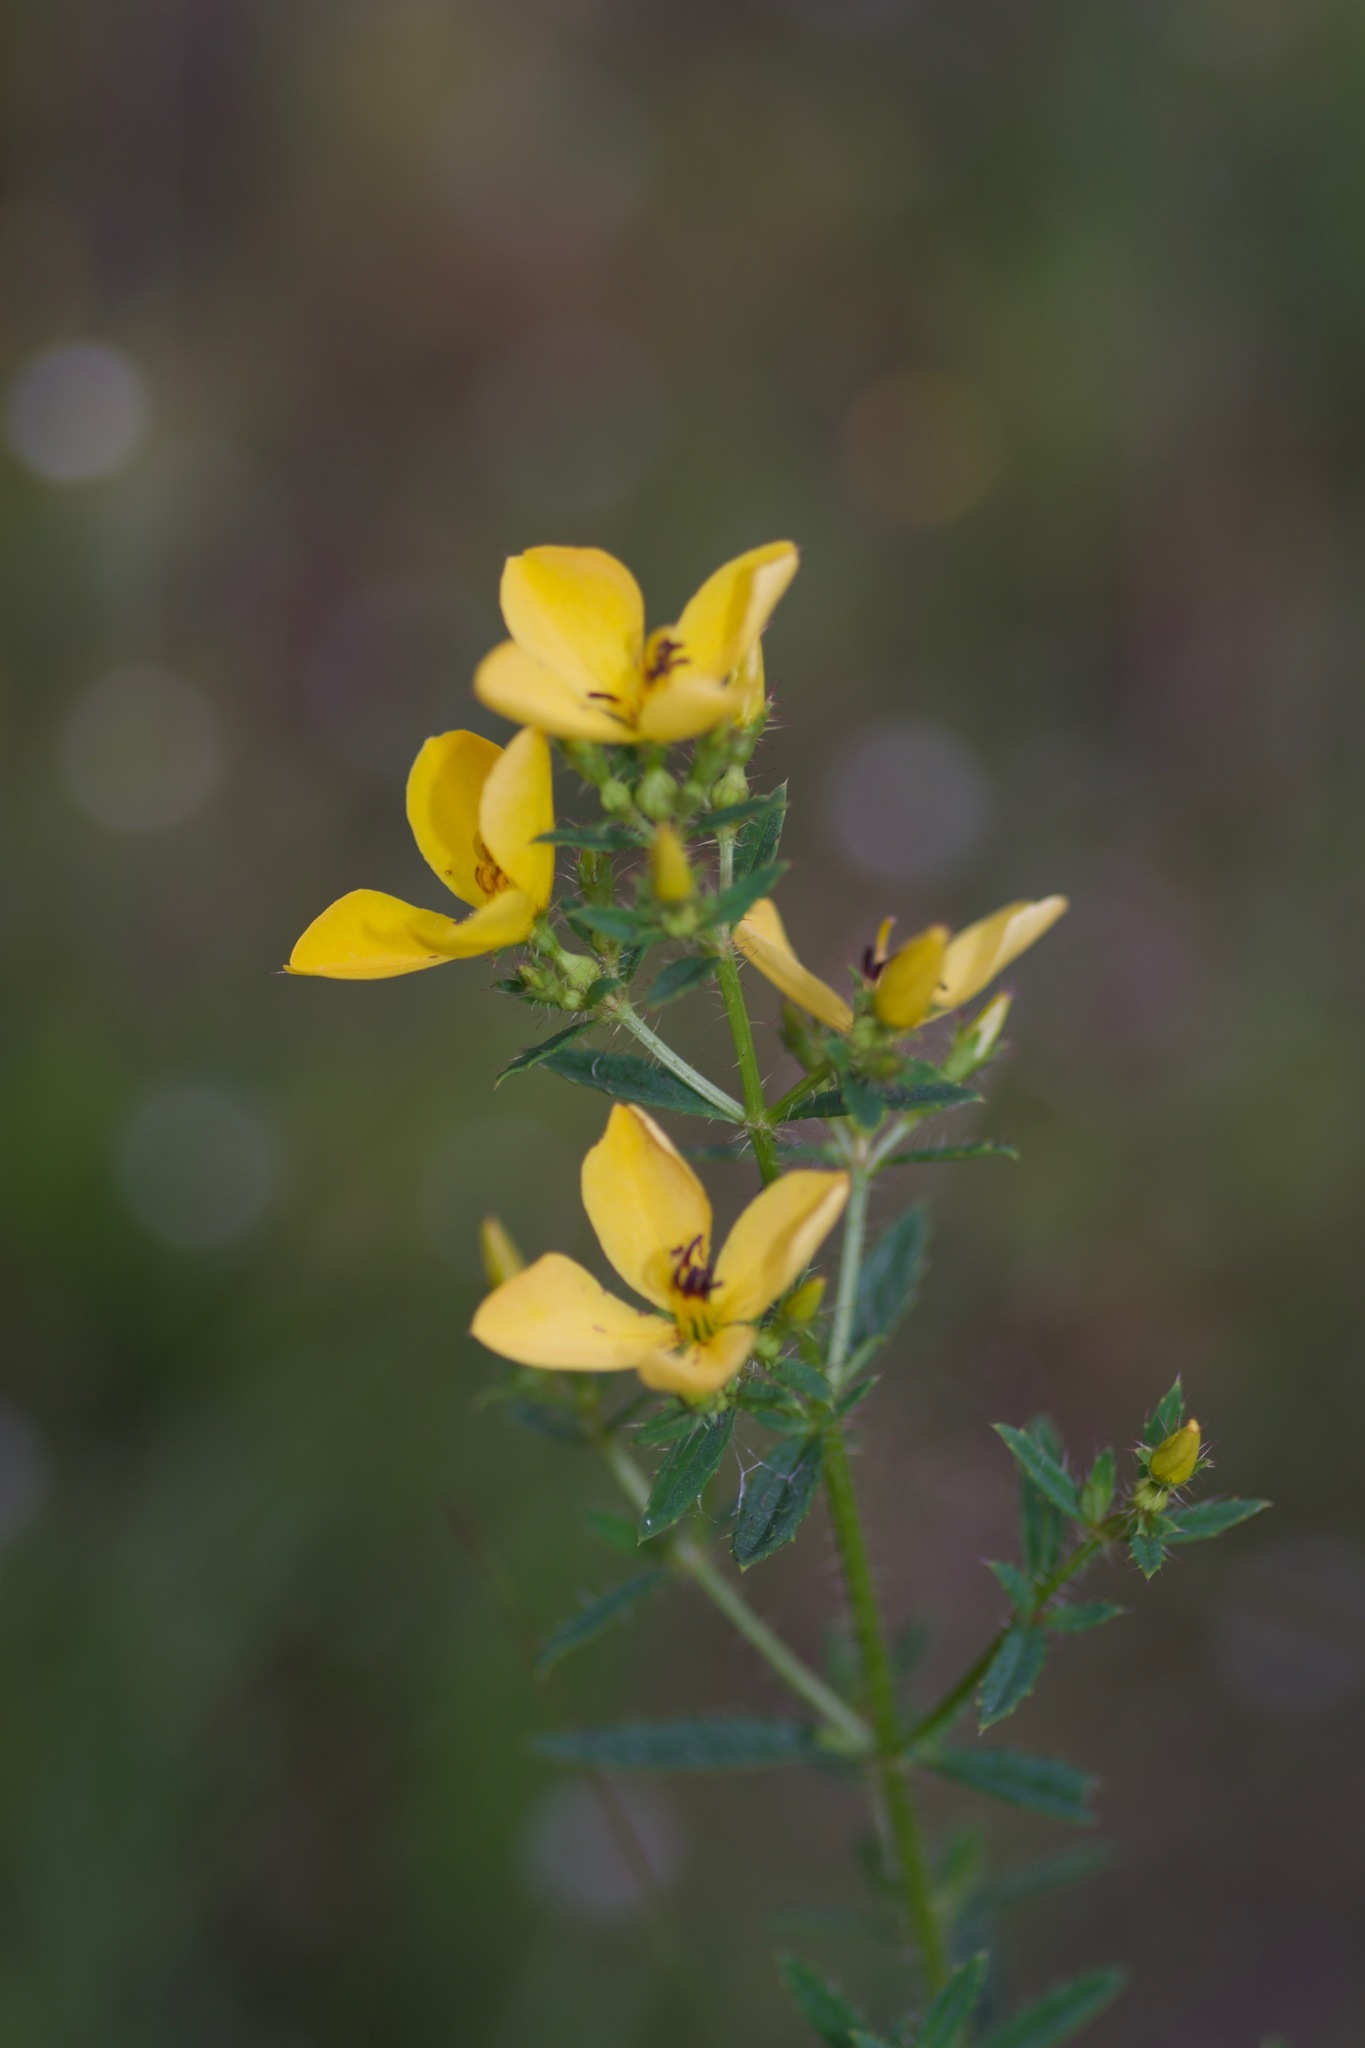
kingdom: Plantae
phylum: Tracheophyta
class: Magnoliopsida
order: Myrtales
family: Melastomataceae
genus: Rhexia
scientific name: Rhexia lutea
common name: Golden meadow-beauty
